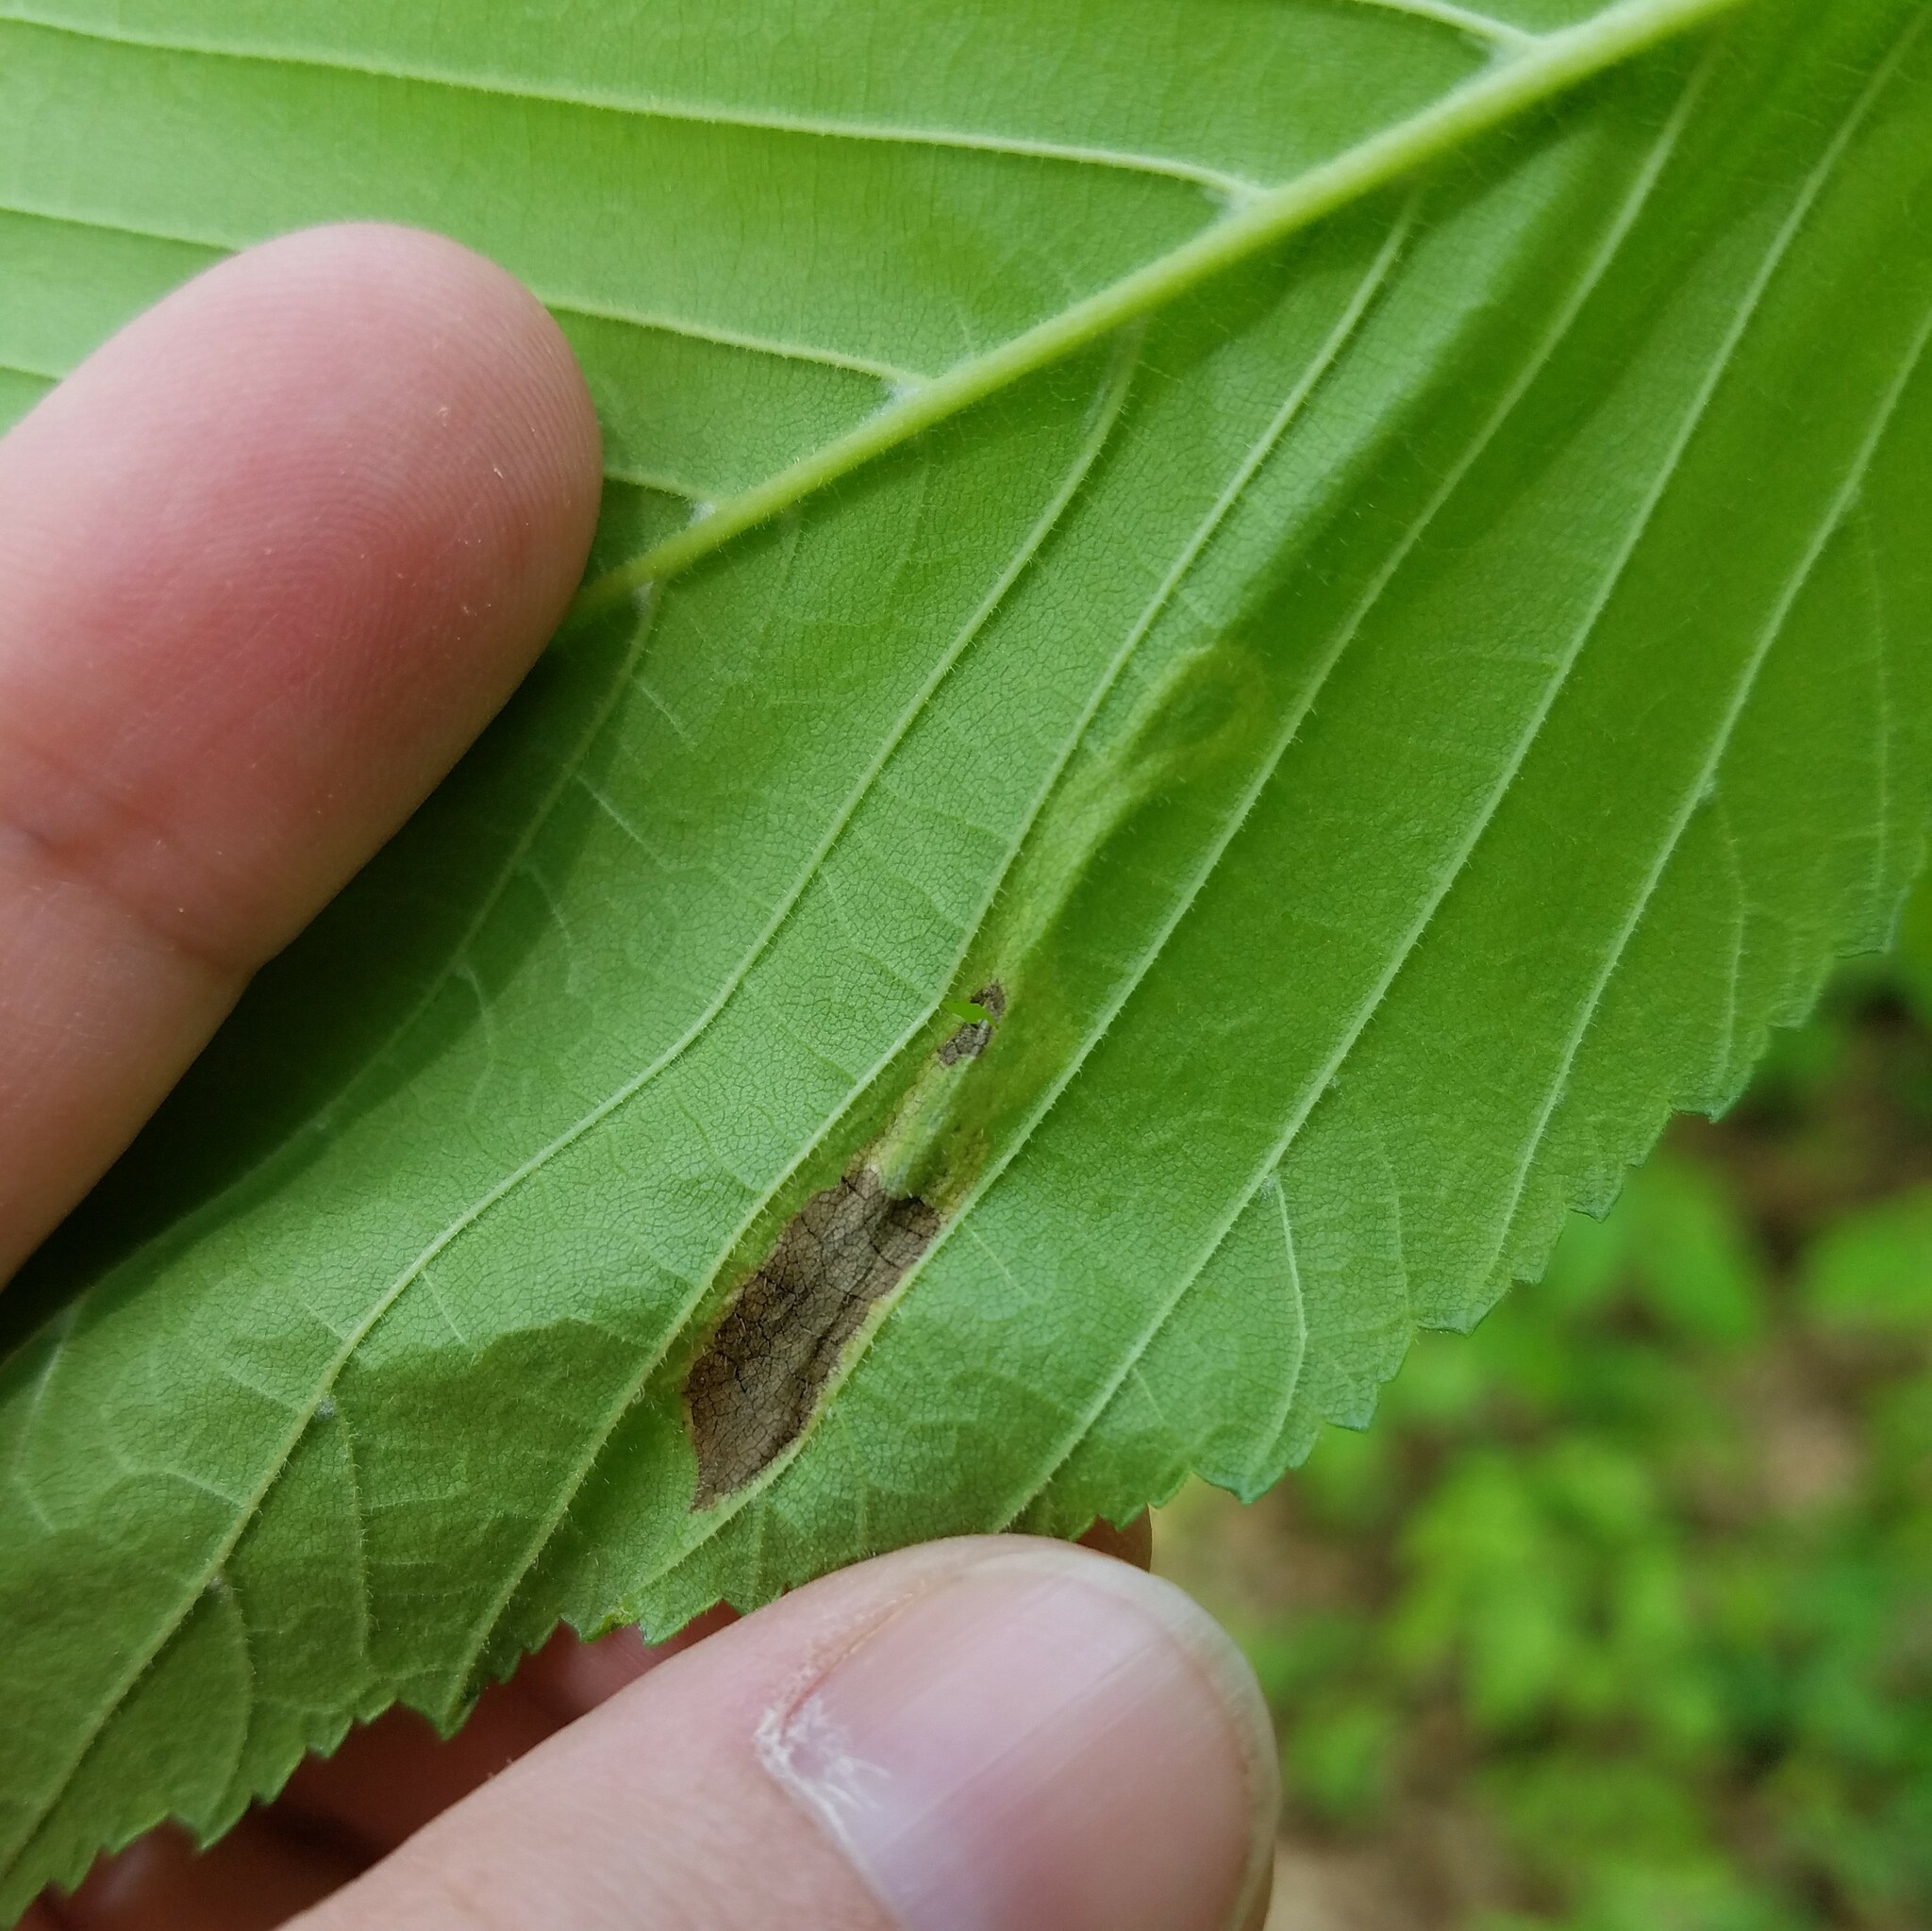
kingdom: Animalia
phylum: Arthropoda
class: Insecta
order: Diptera
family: Agromyzidae
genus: Agromyza
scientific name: Agromyza aristata
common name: Elm agromyzid leafminer
